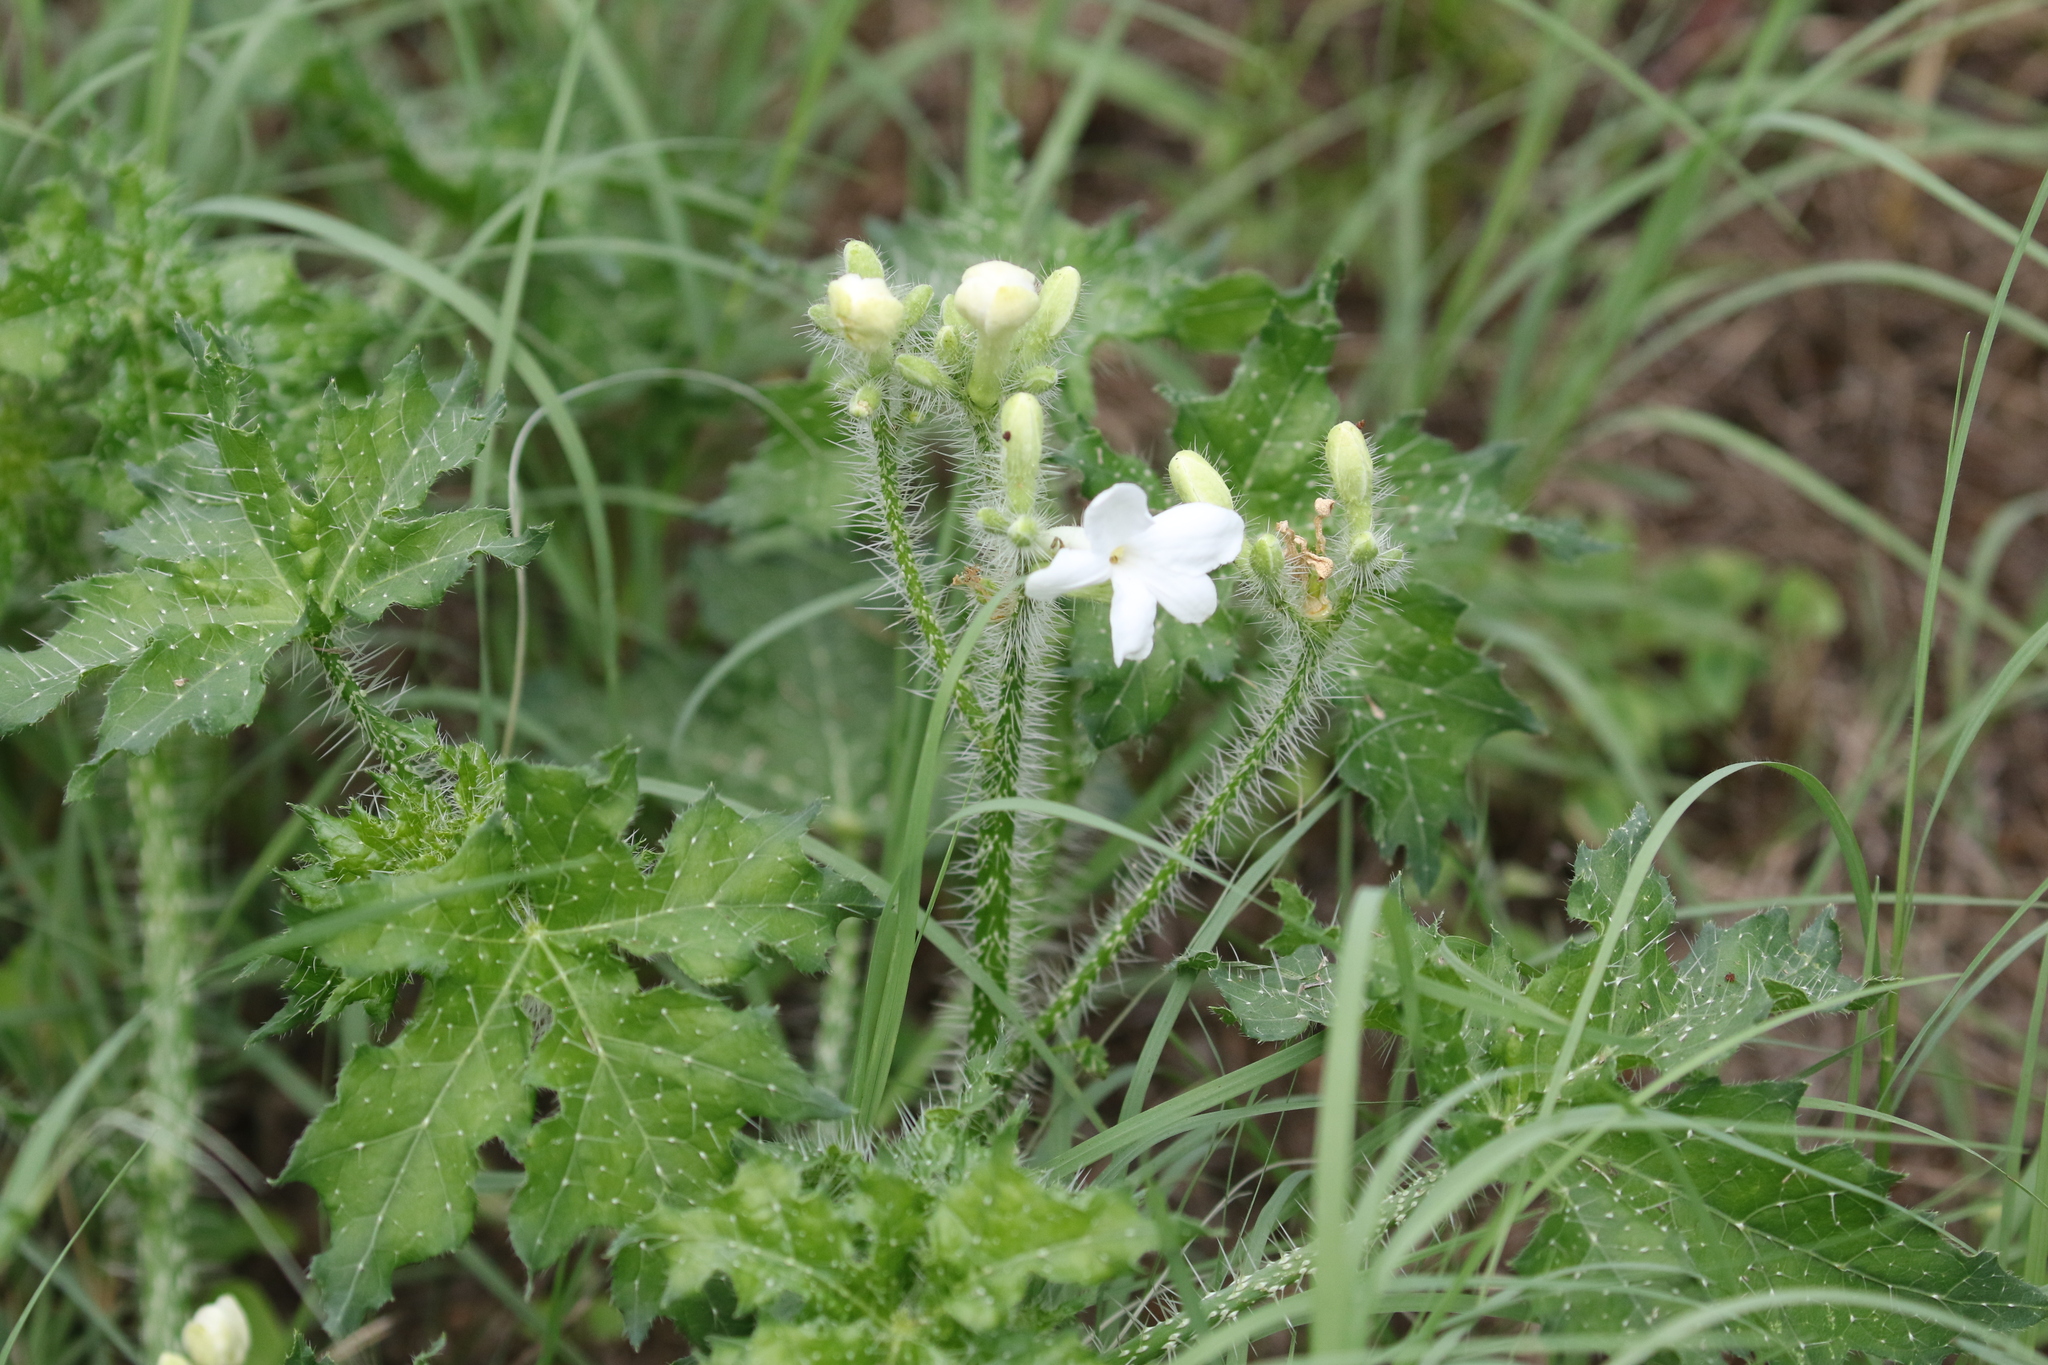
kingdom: Plantae
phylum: Tracheophyta
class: Magnoliopsida
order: Malpighiales
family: Euphorbiaceae
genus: Cnidoscolus
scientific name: Cnidoscolus texanus
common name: Texas bull-nettle
